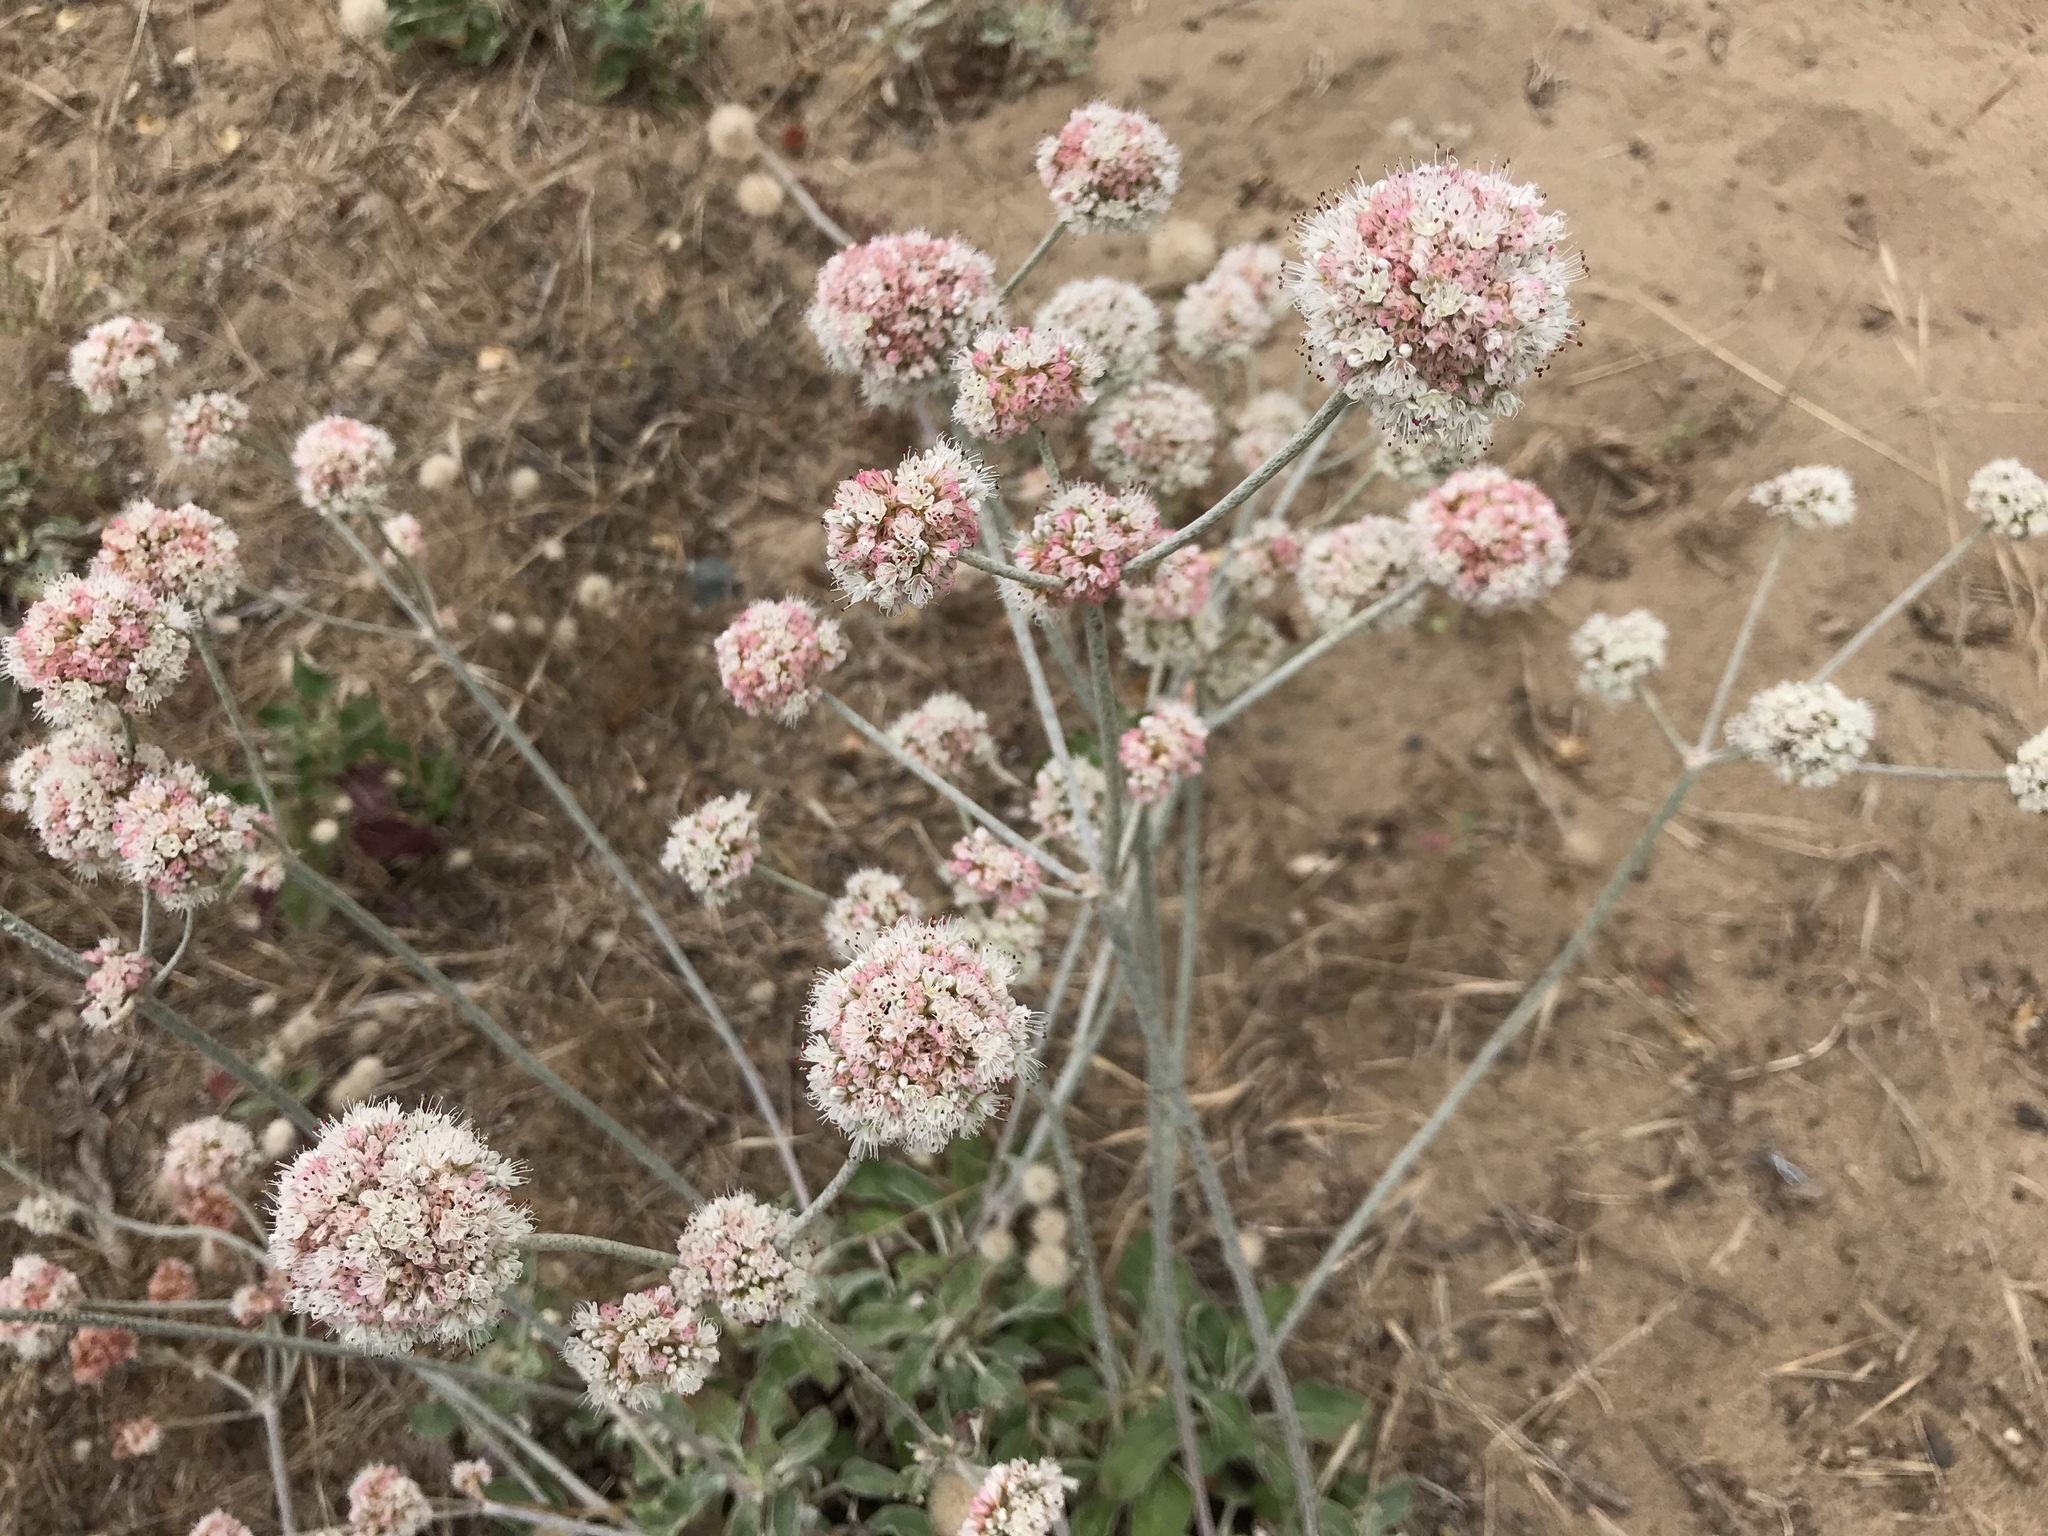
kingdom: Plantae
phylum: Tracheophyta
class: Magnoliopsida
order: Caryophyllales
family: Polygonaceae
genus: Eriogonum
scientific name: Eriogonum latifolium
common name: Seaside wild buckwheat
